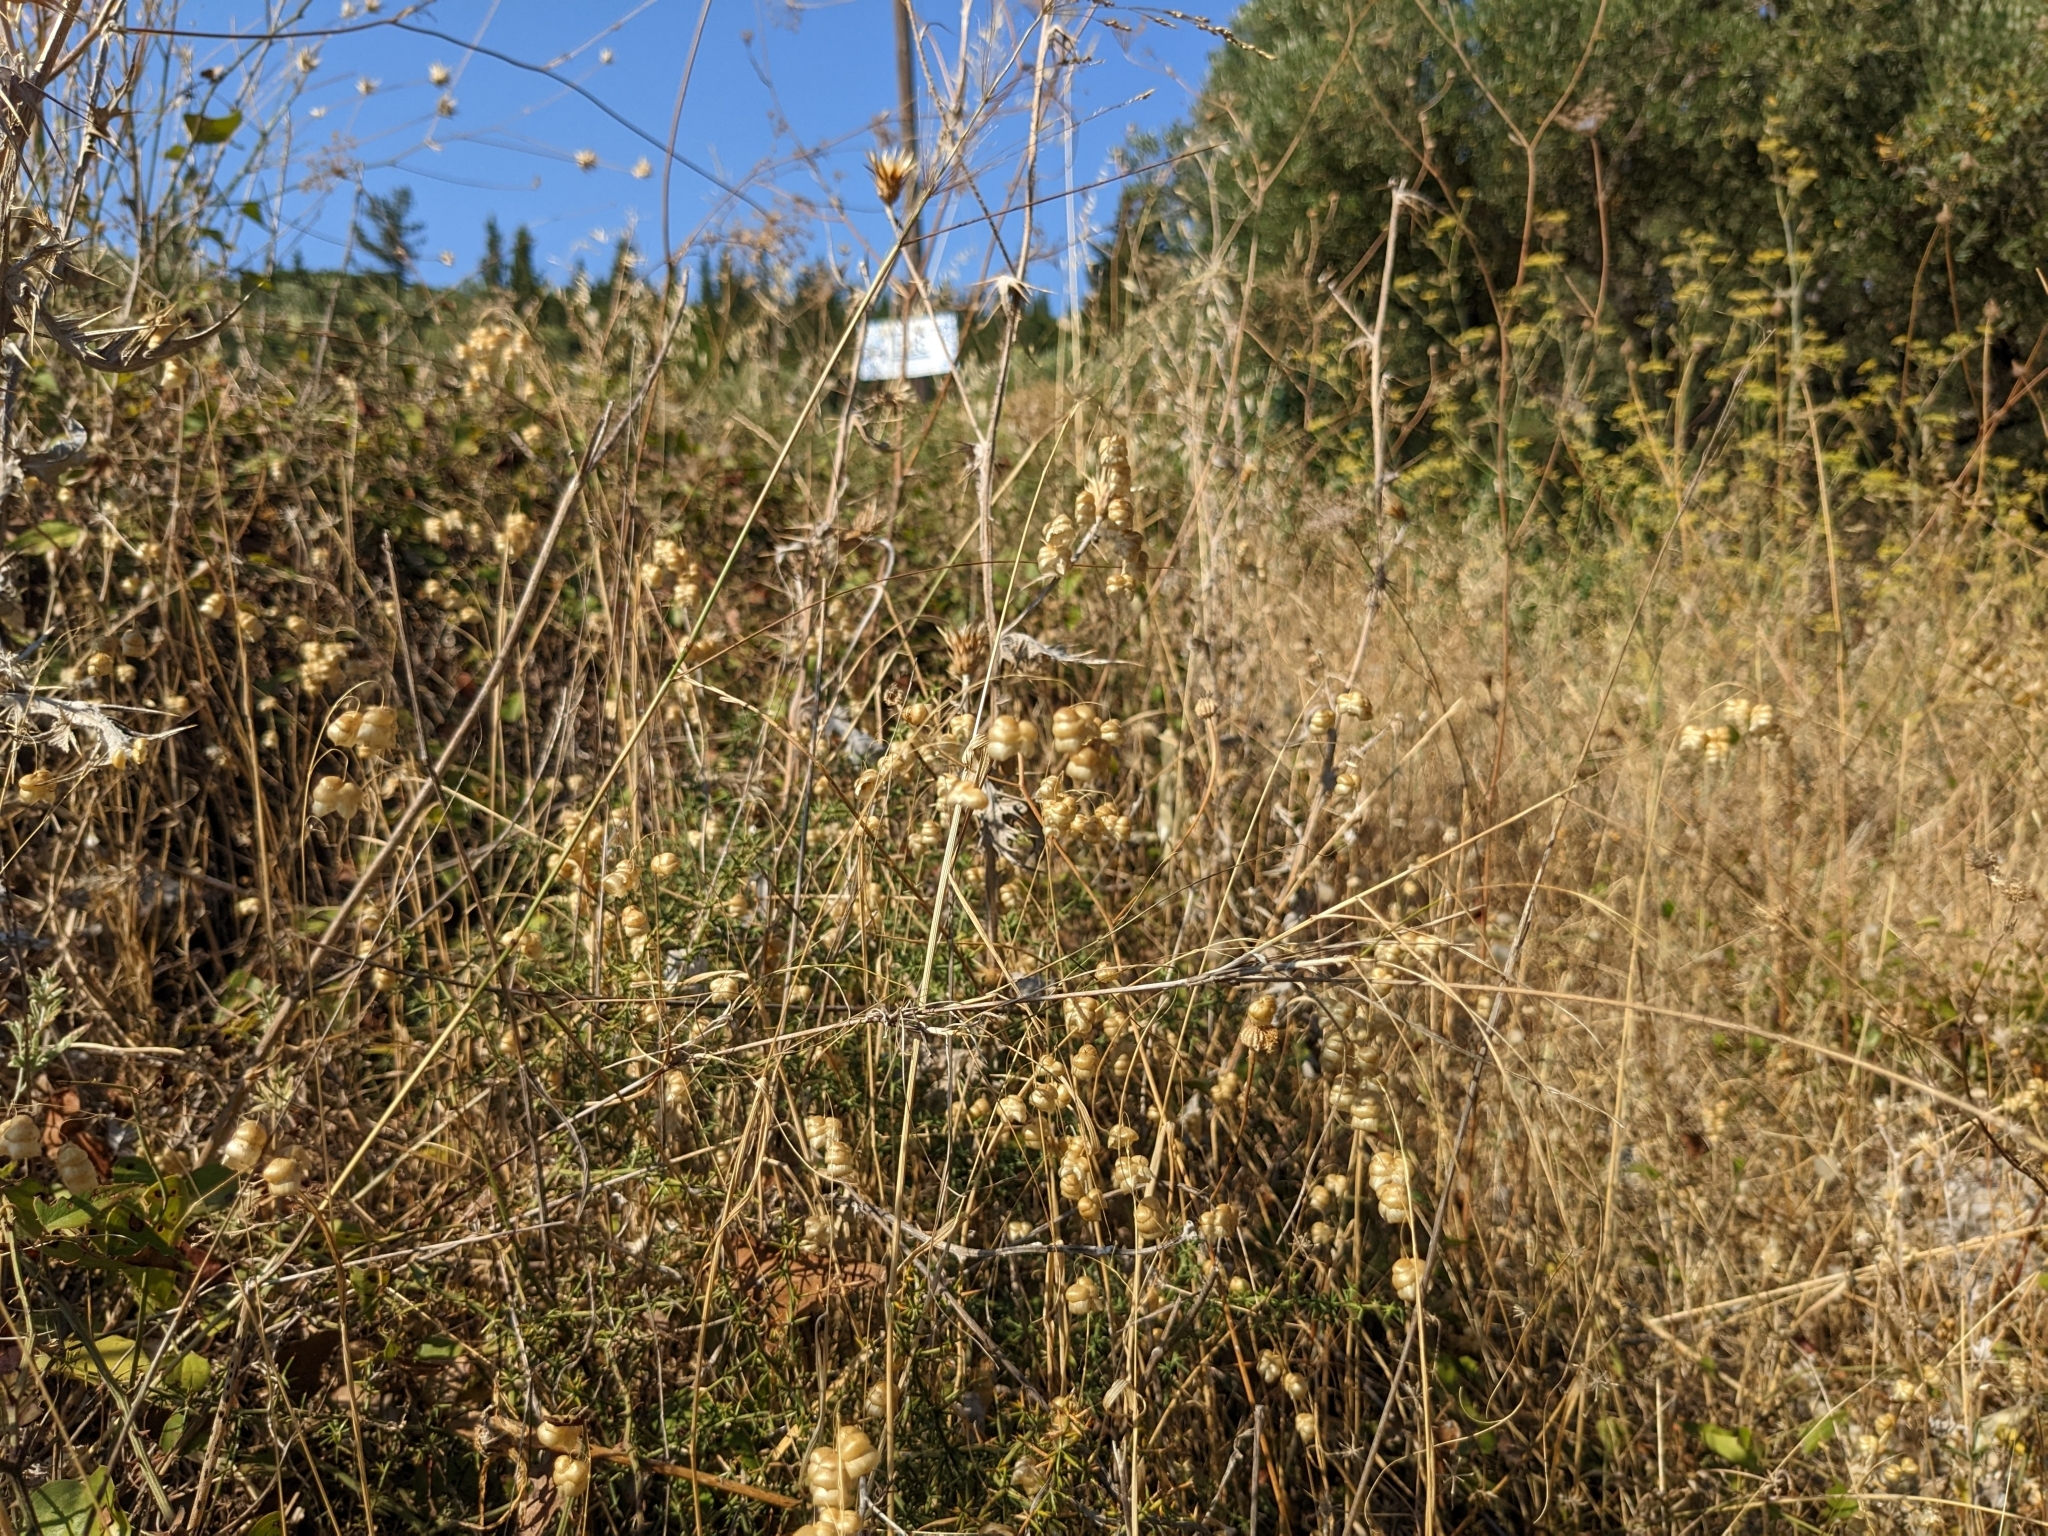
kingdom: Plantae
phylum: Tracheophyta
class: Liliopsida
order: Poales
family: Poaceae
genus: Briza
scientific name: Briza maxima
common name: Big quakinggrass
